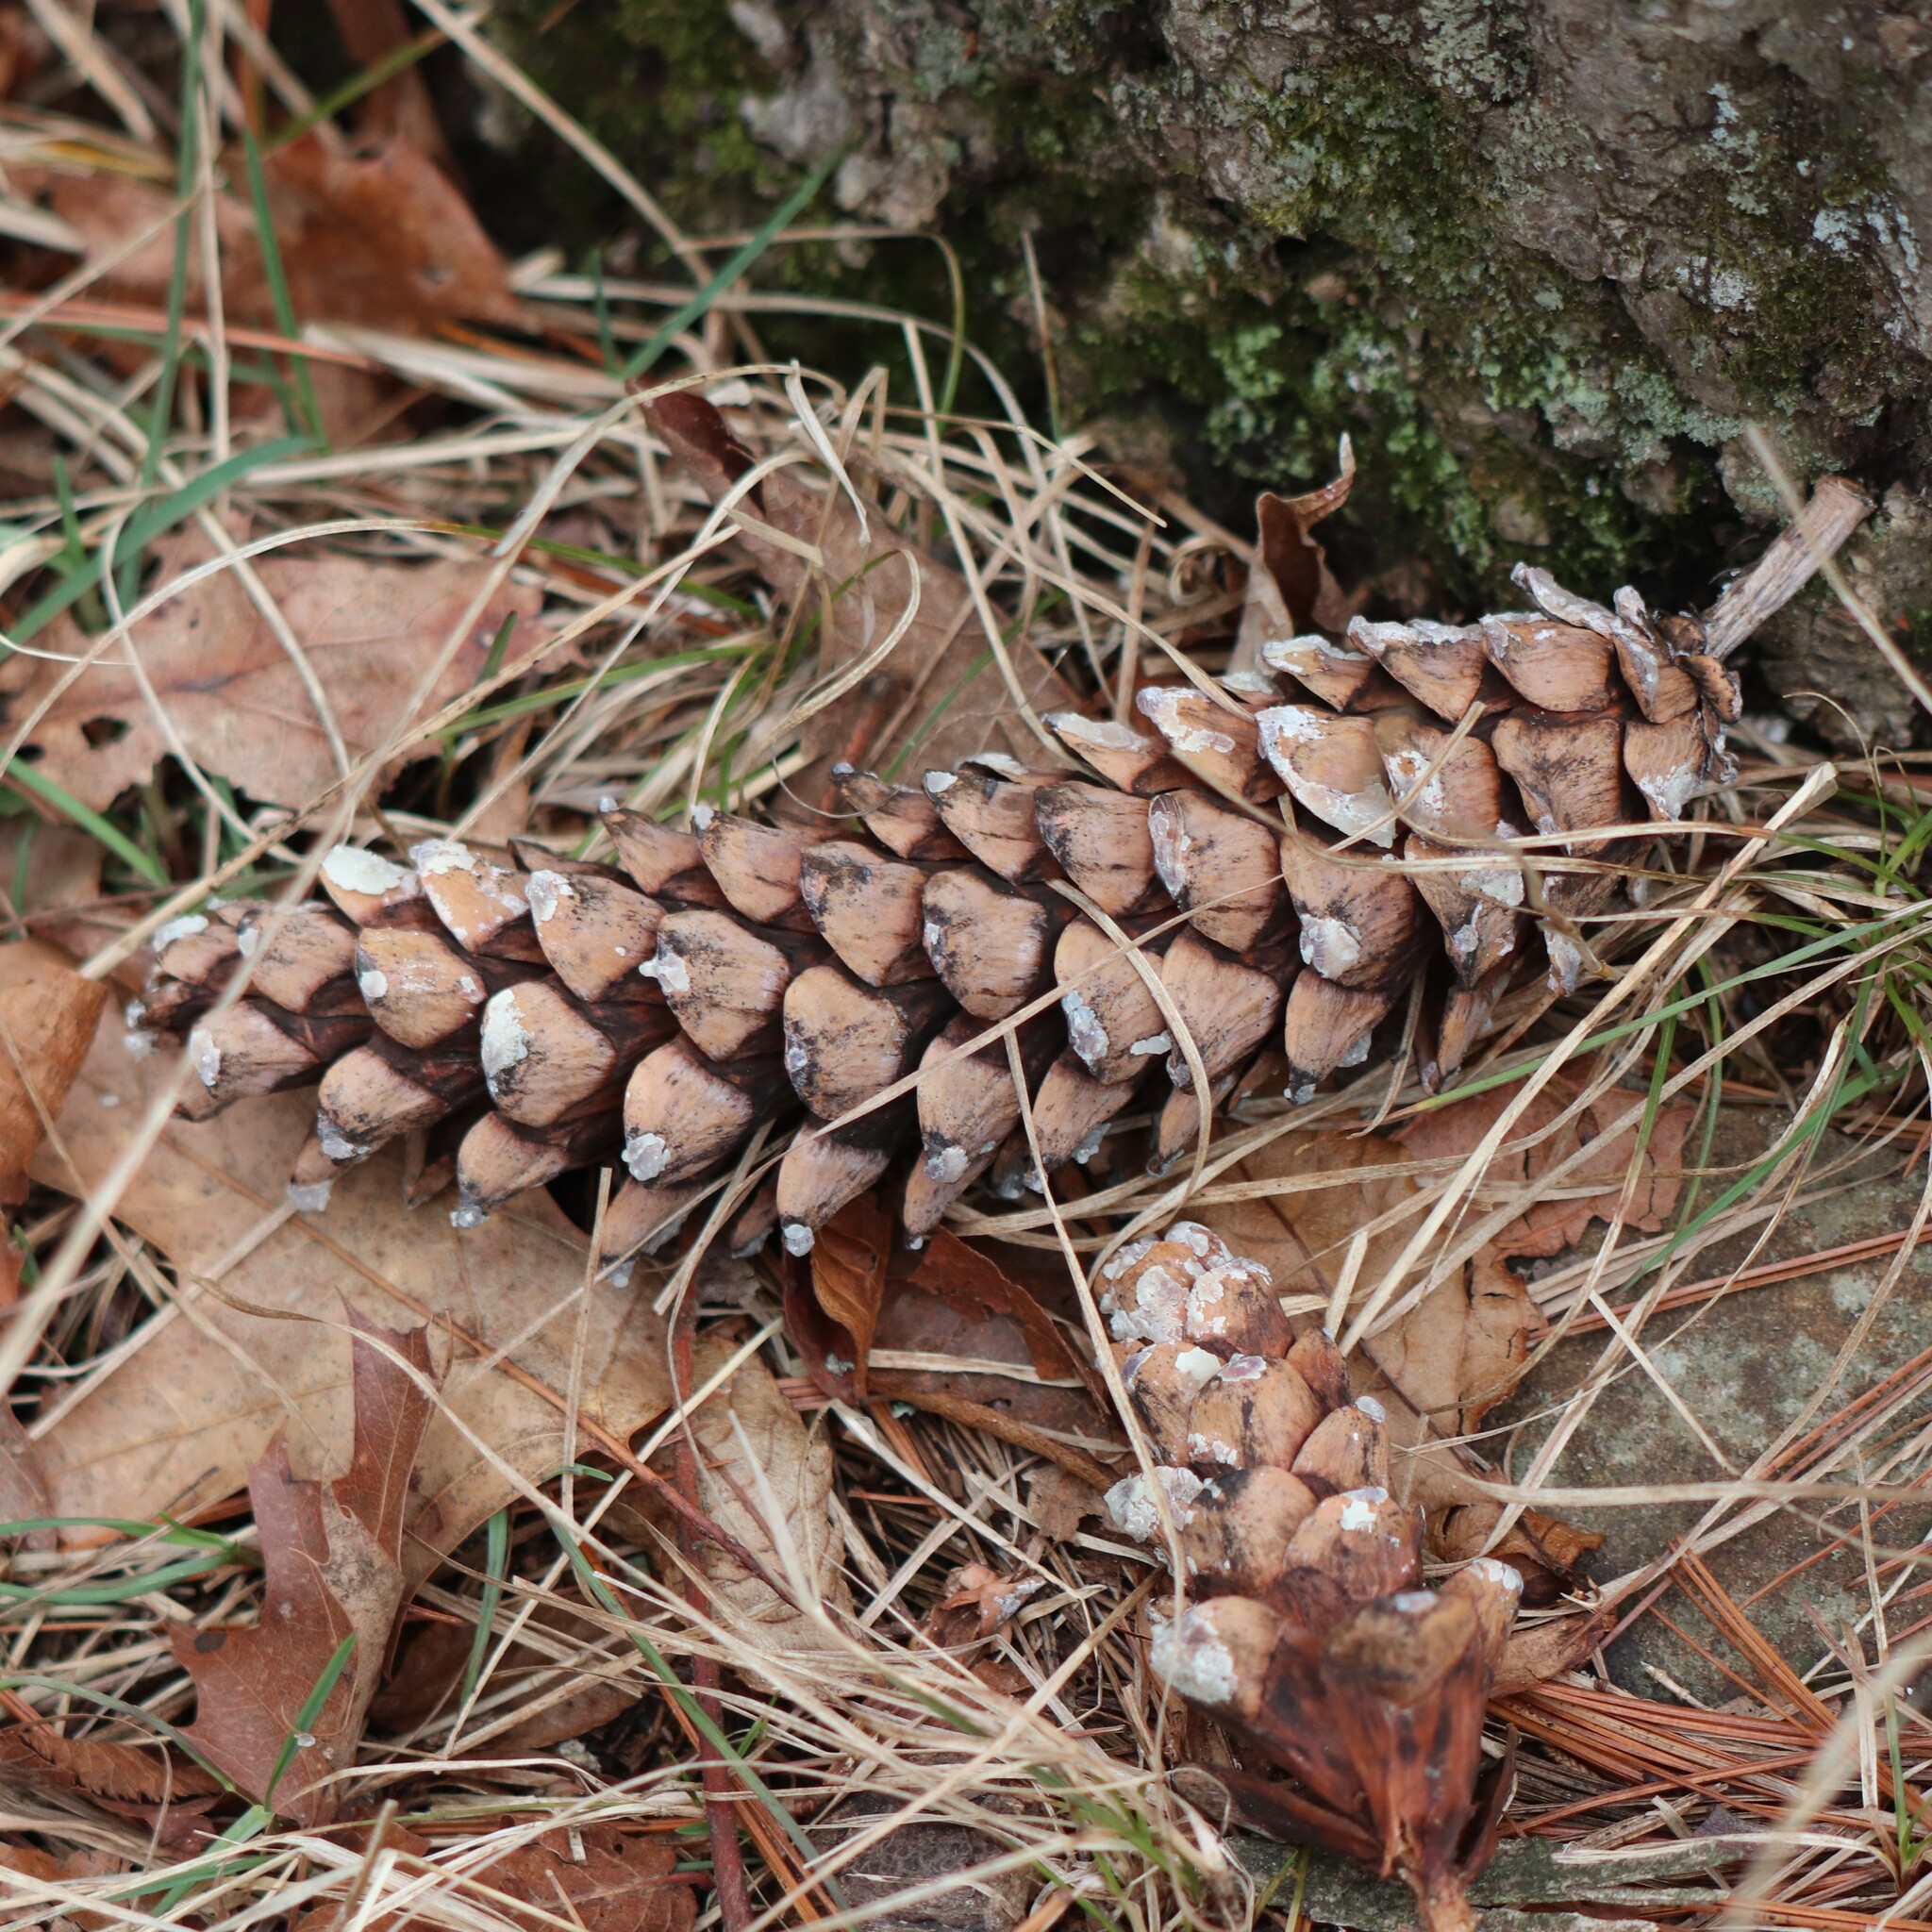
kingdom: Plantae
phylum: Tracheophyta
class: Pinopsida
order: Pinales
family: Pinaceae
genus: Pinus
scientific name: Pinus strobus
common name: Weymouth pine
